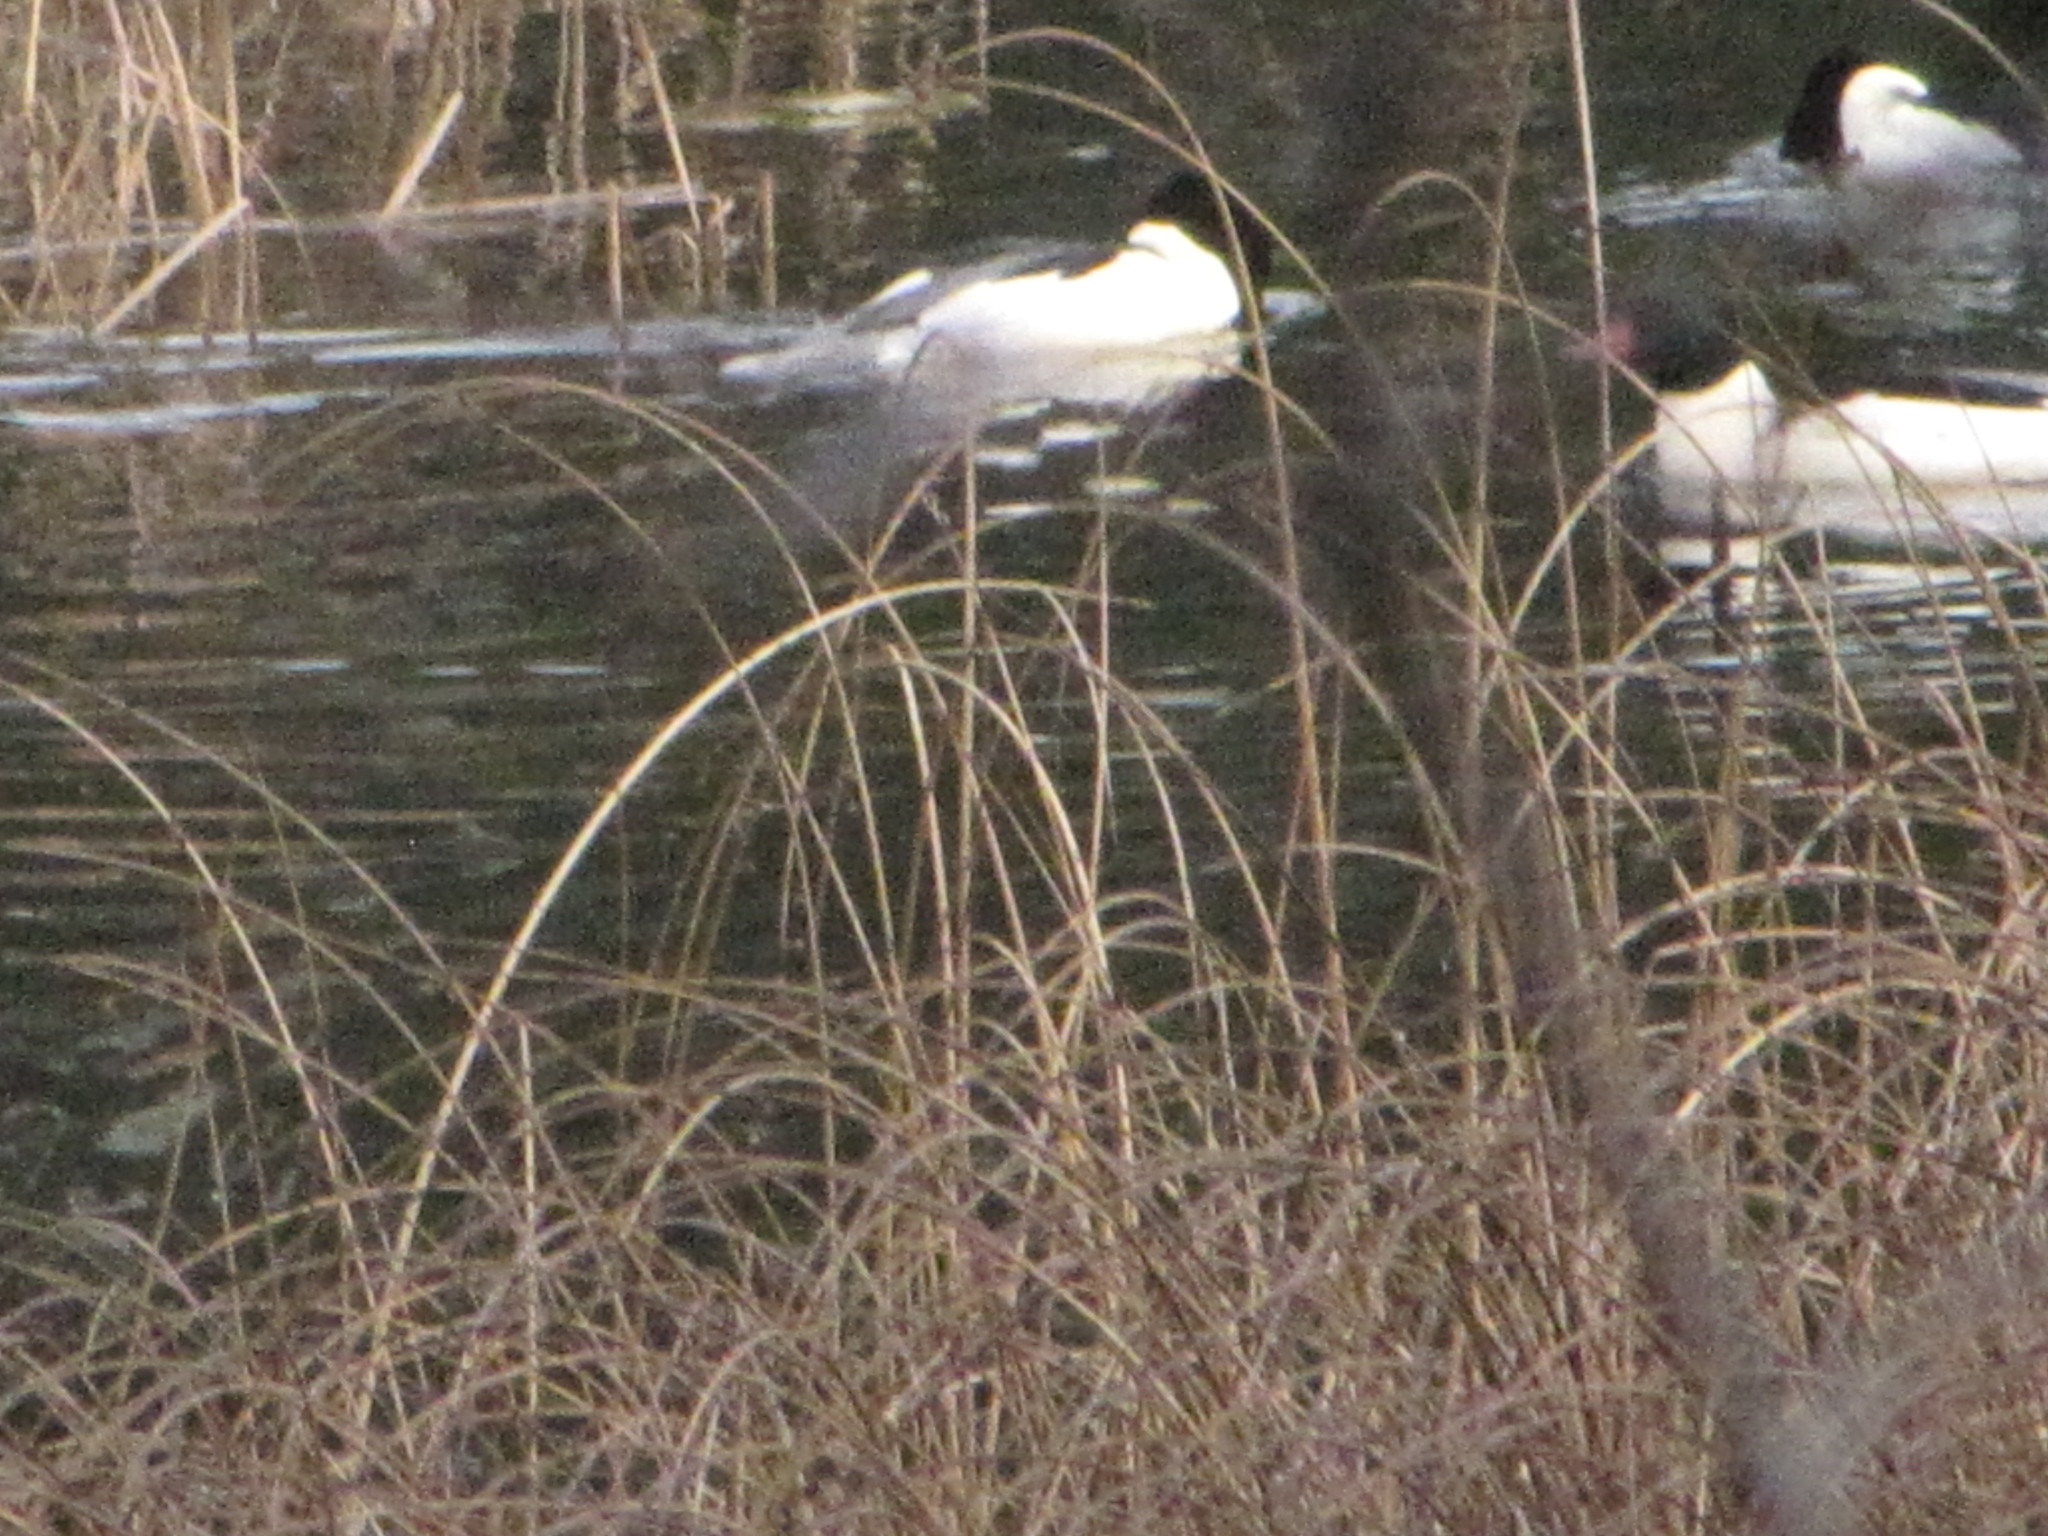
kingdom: Animalia
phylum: Chordata
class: Aves
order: Anseriformes
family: Anatidae
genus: Mergus
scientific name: Mergus merganser
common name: Common merganser
